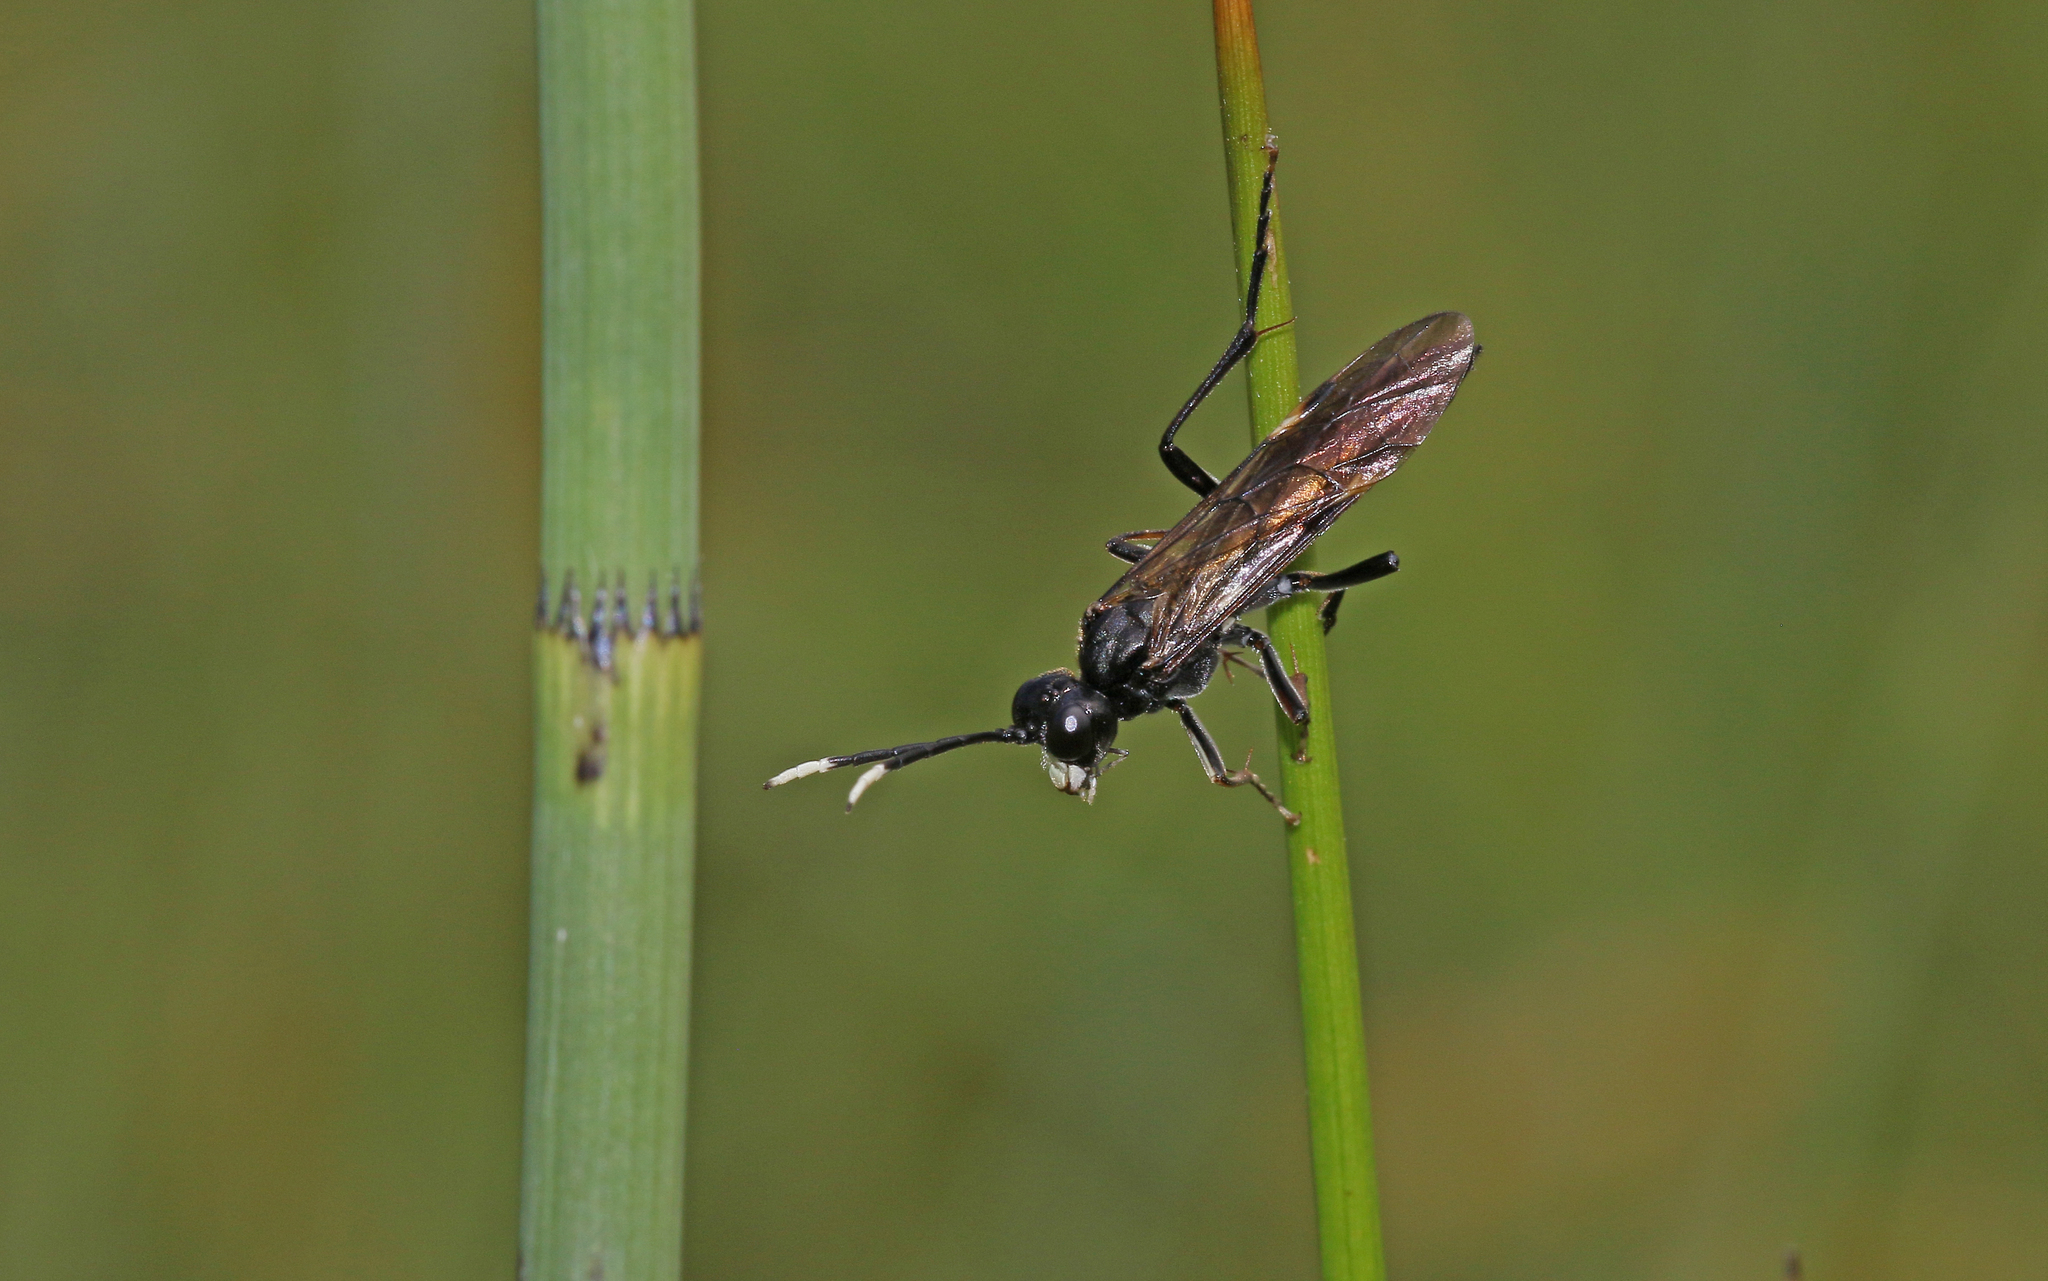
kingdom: Animalia
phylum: Arthropoda
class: Insecta
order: Hymenoptera
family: Tenthredinidae
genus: Tenthredo
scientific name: Tenthredo livida
